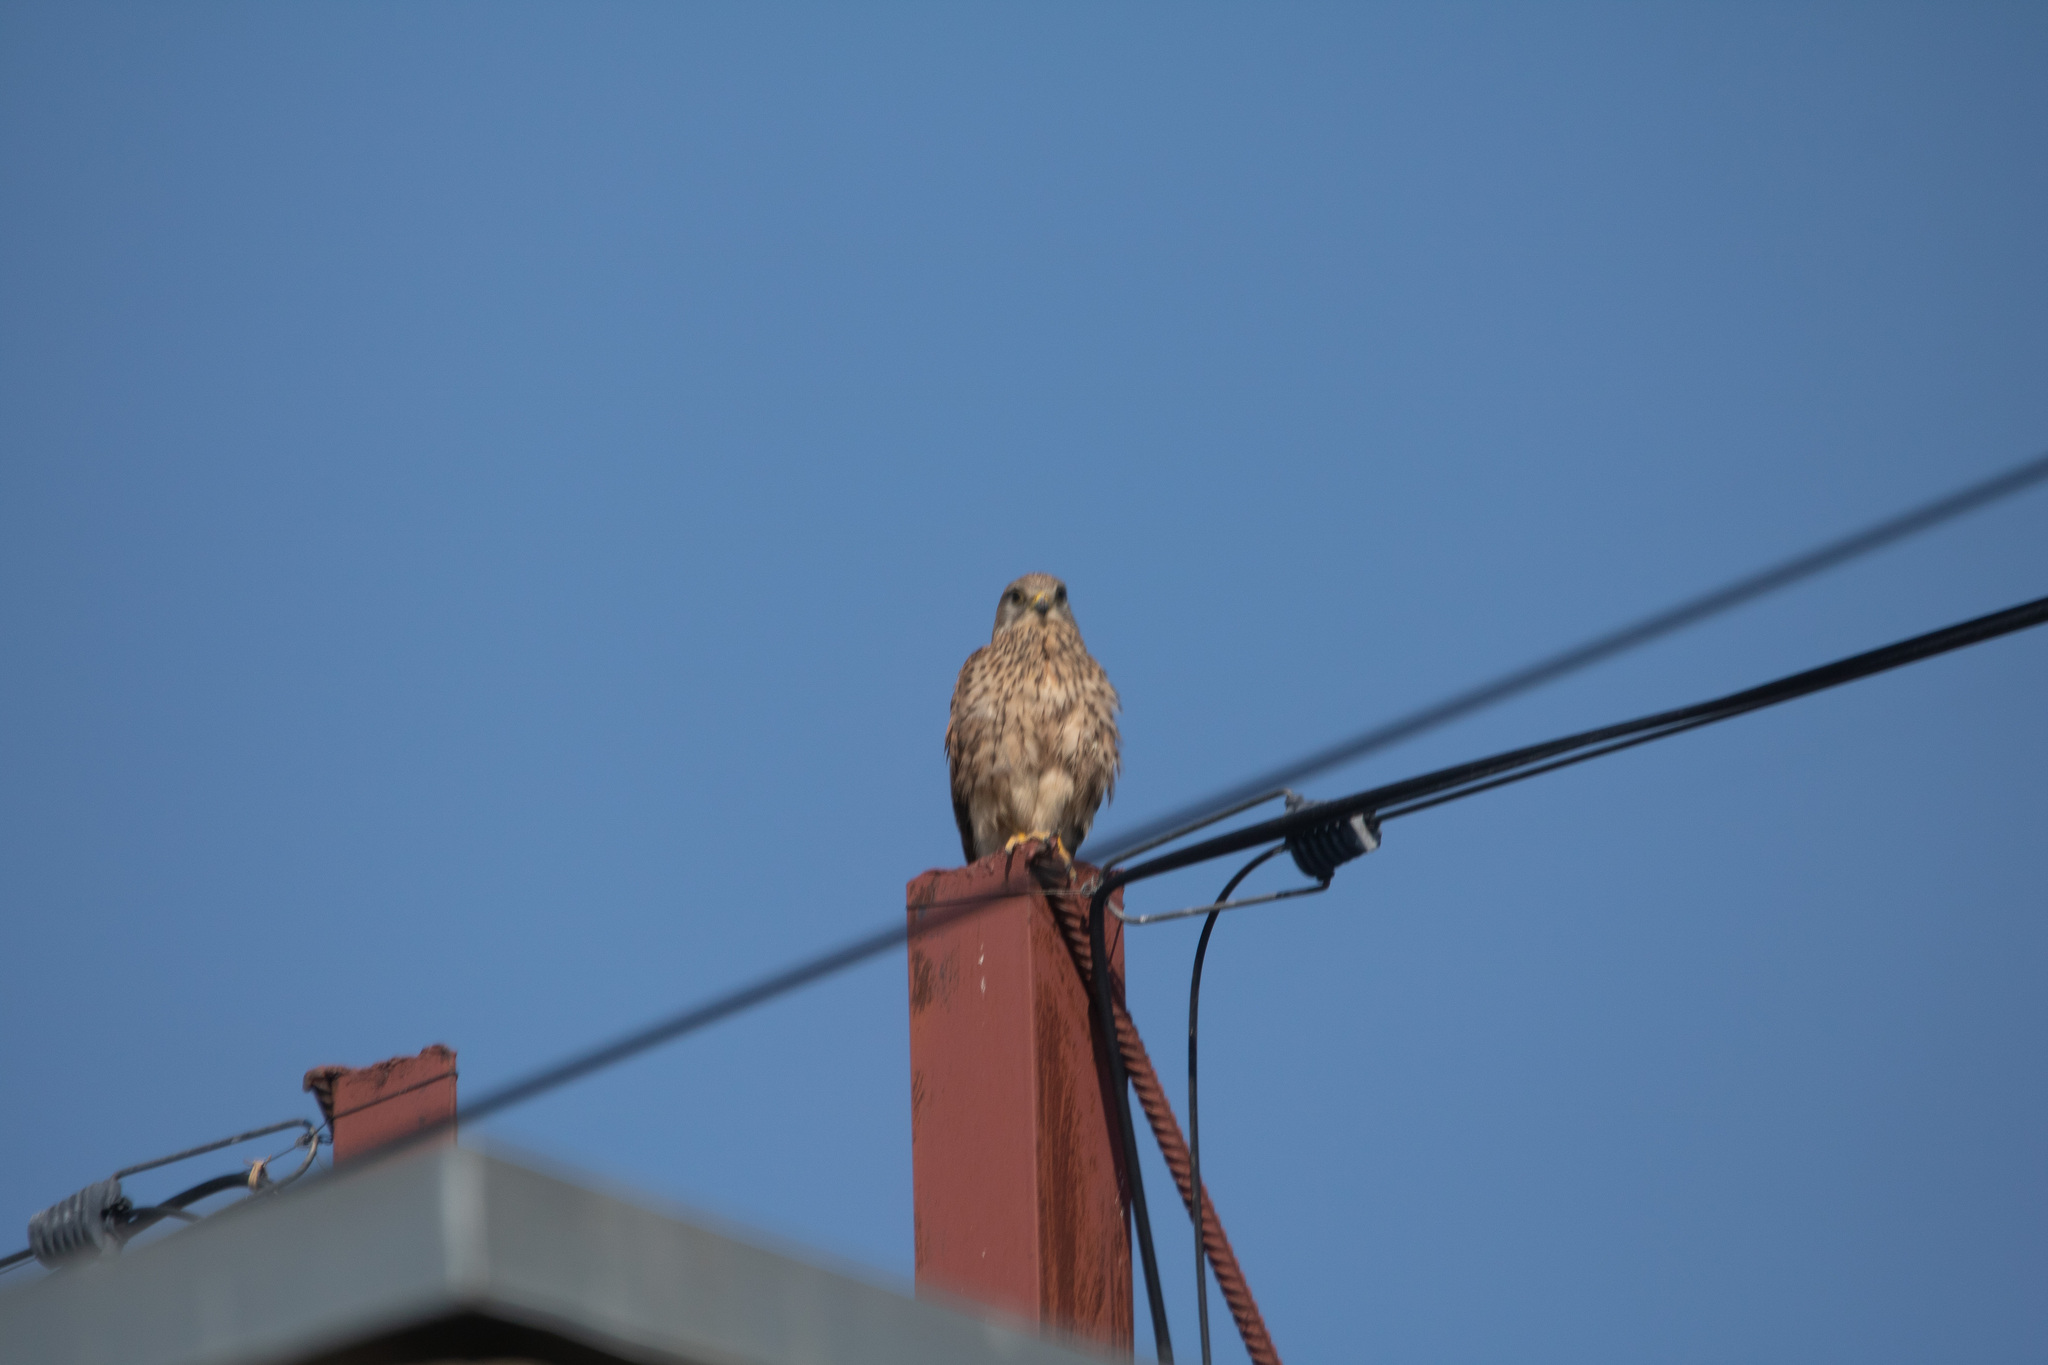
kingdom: Animalia
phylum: Chordata
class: Aves
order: Falconiformes
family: Falconidae
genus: Falco
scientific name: Falco tinnunculus
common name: Common kestrel
